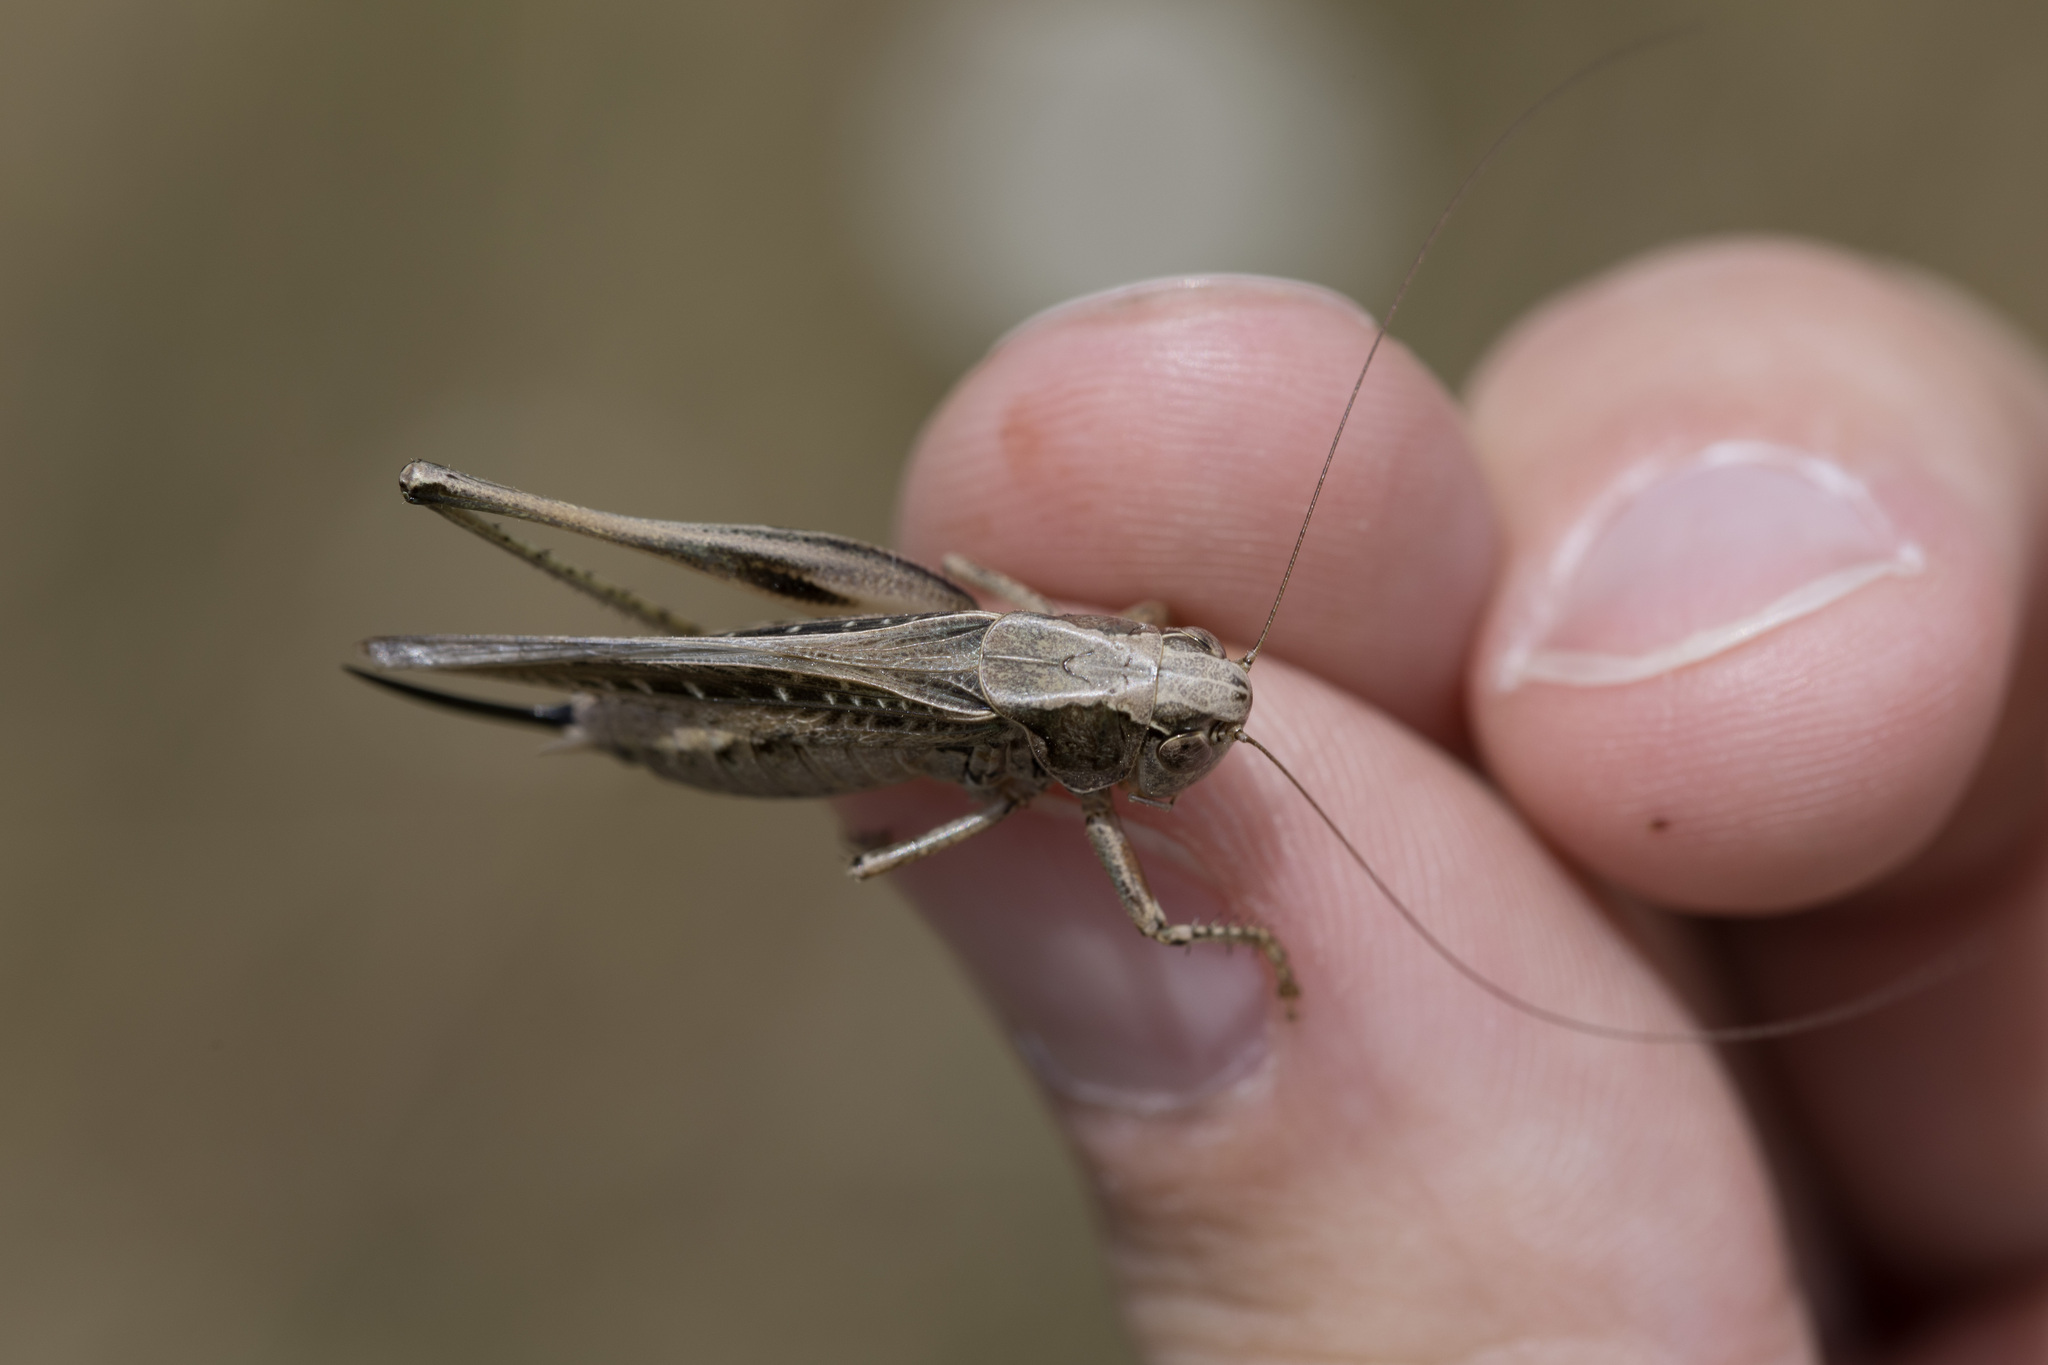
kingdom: Animalia
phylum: Arthropoda
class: Insecta
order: Orthoptera
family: Tettigoniidae
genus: Platycleis
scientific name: Platycleis albopunctata
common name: Grey bush-cricket
